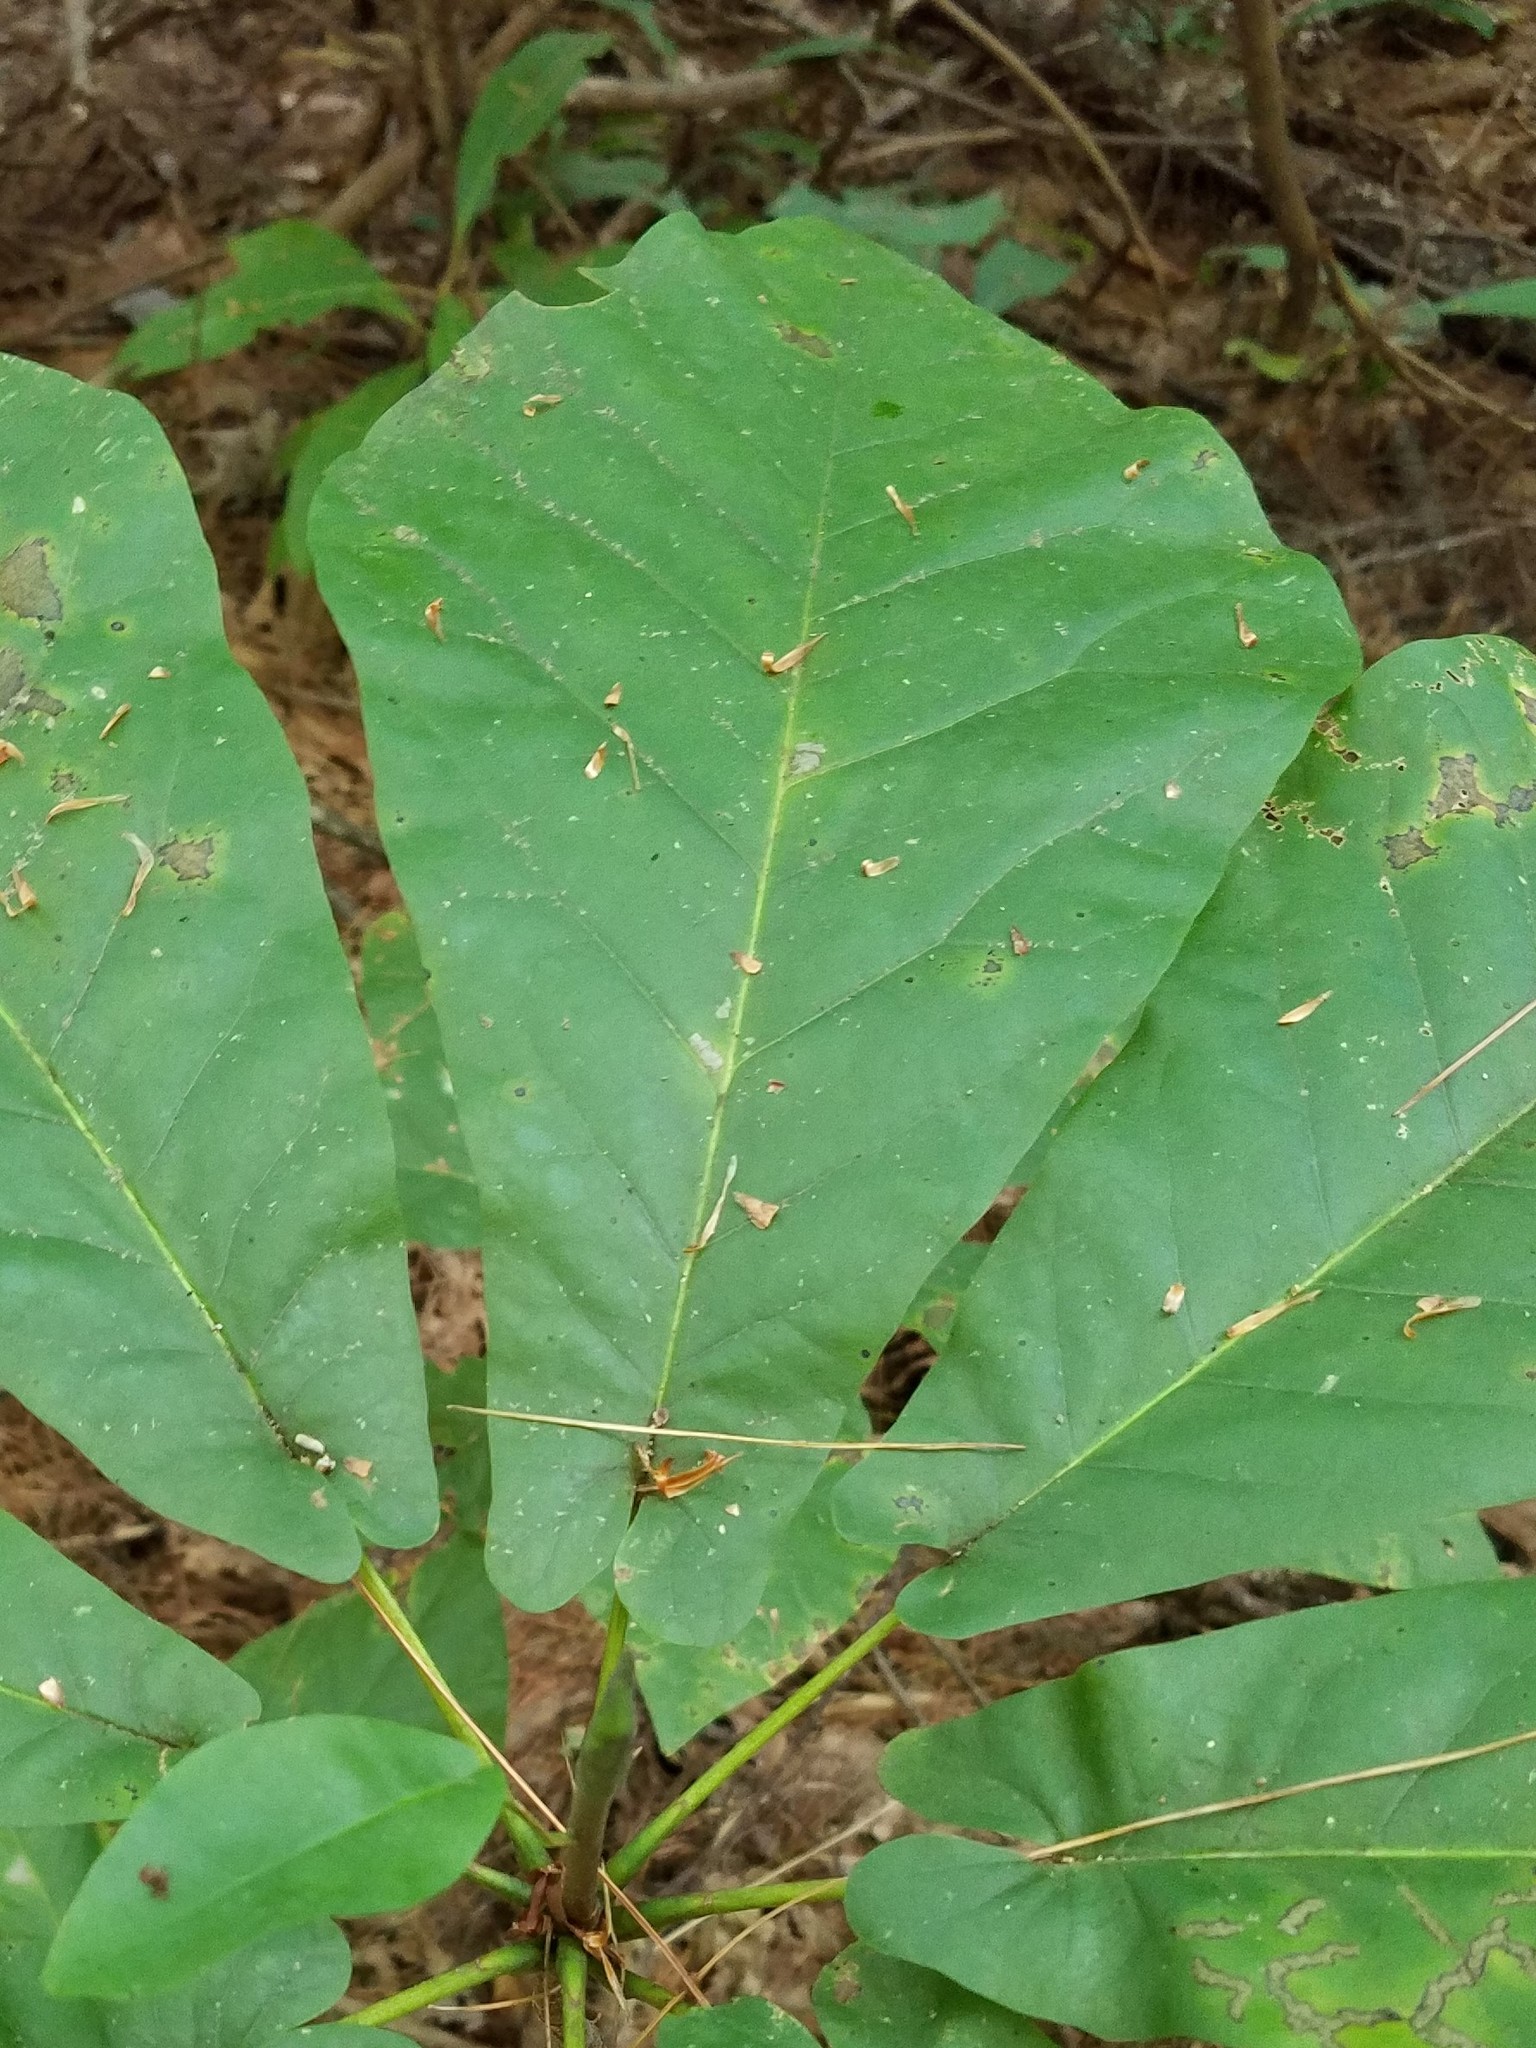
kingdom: Plantae
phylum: Tracheophyta
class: Magnoliopsida
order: Magnoliales
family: Magnoliaceae
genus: Magnolia
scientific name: Magnolia fraseri
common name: Fraser's magnolia
